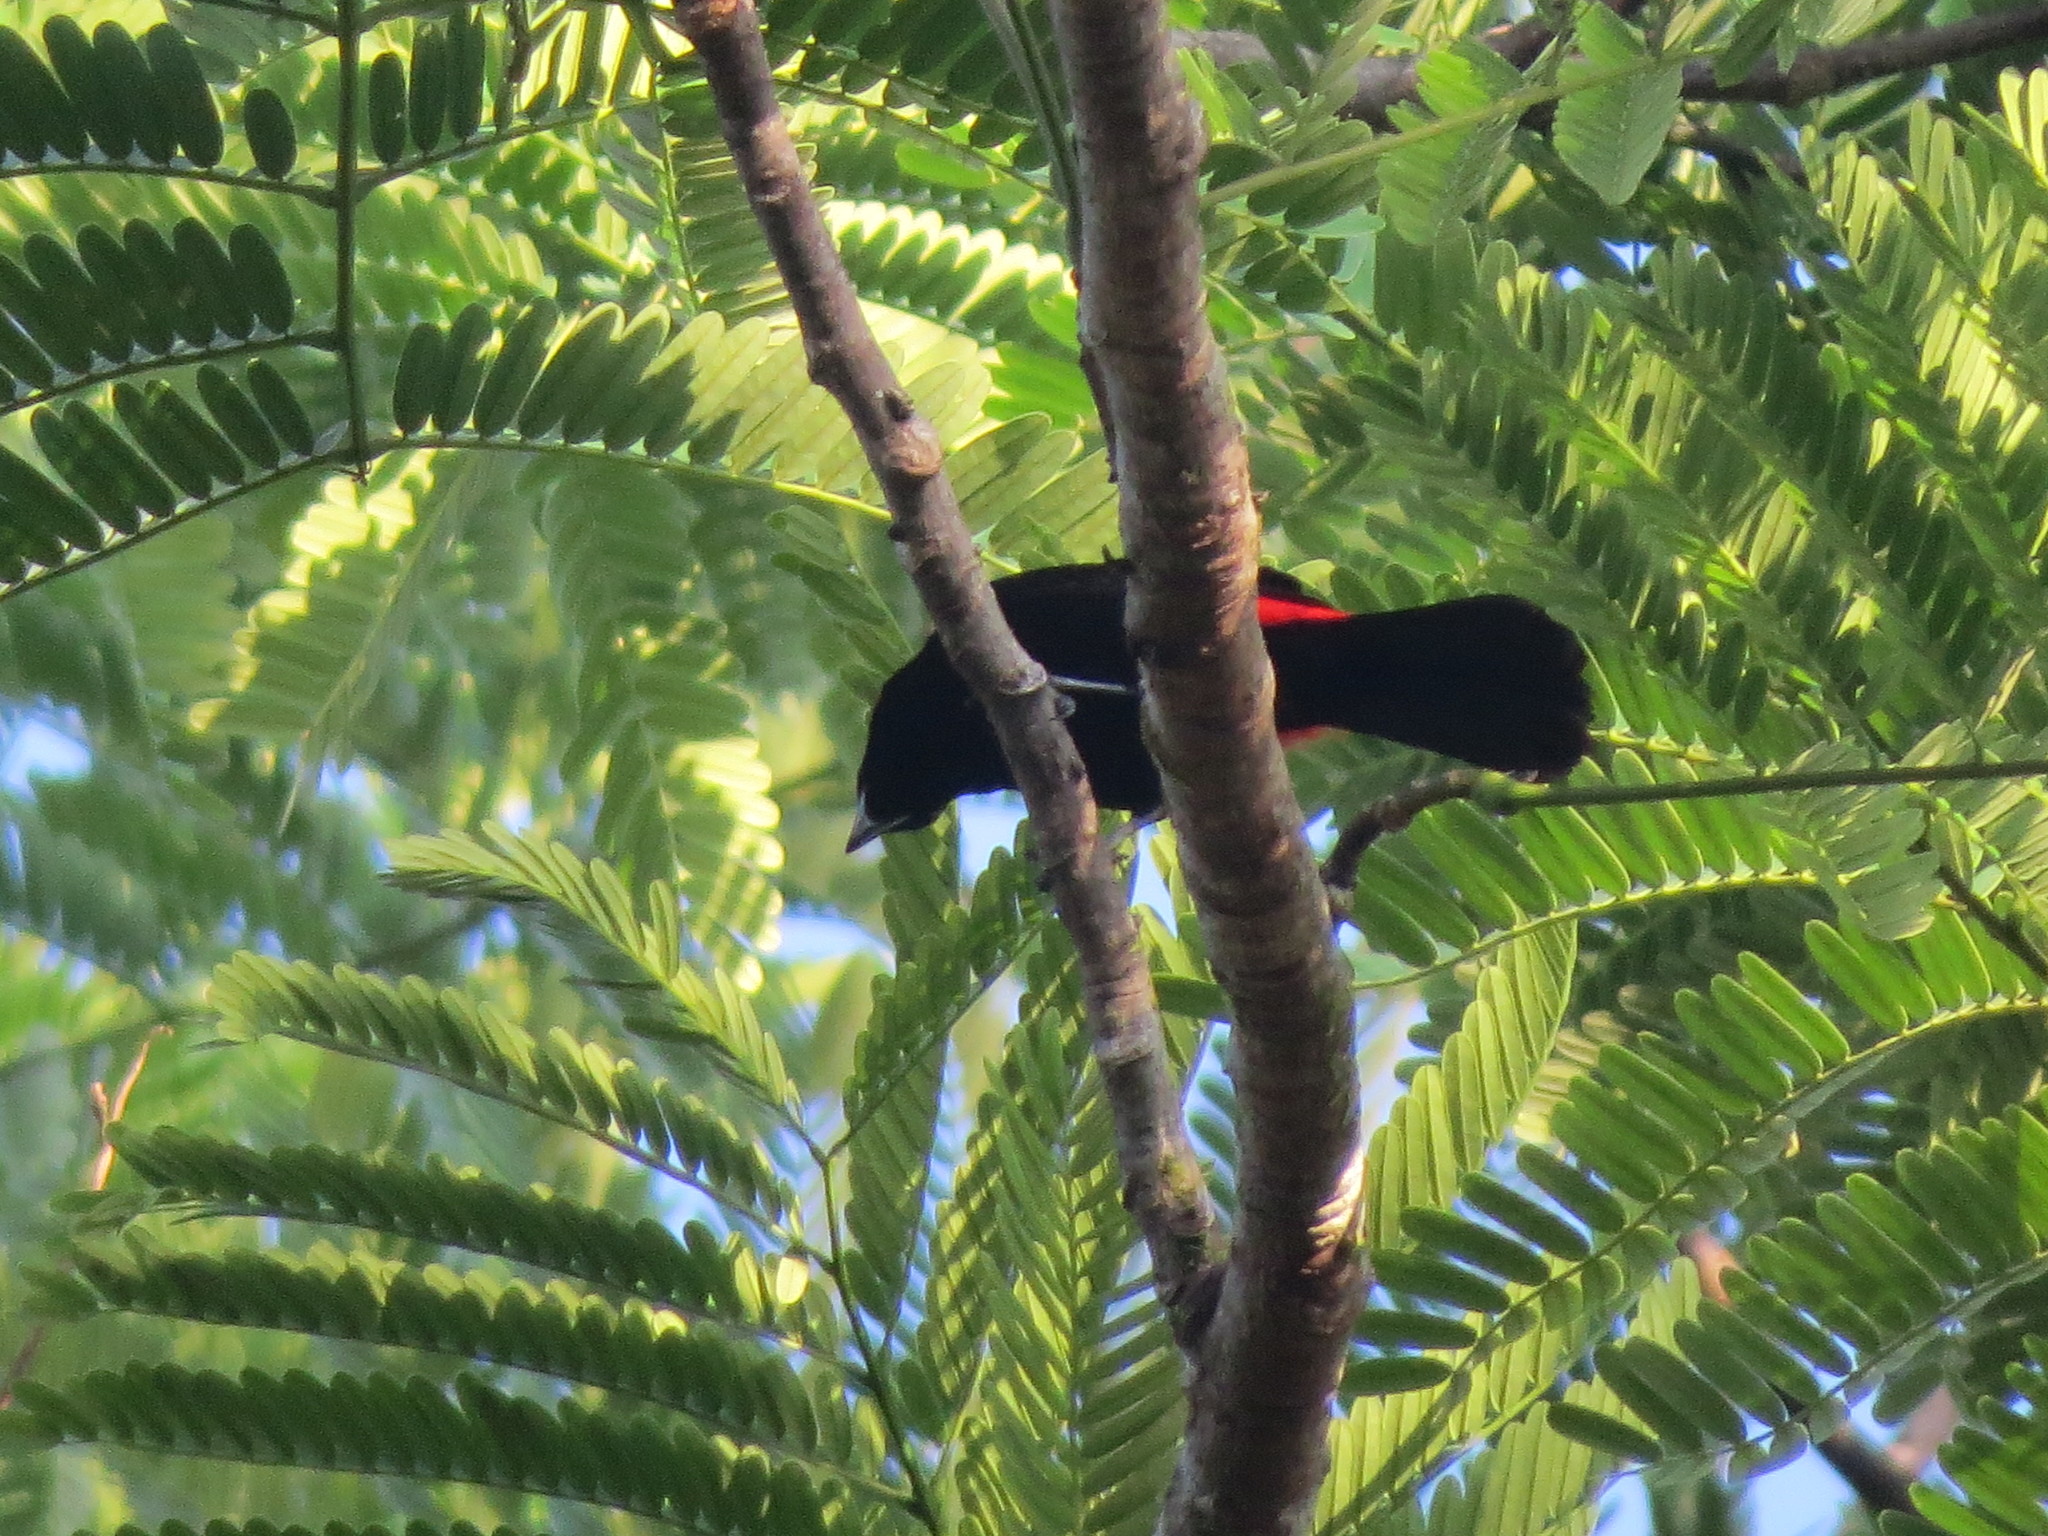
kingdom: Animalia
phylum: Chordata
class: Aves
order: Passeriformes
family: Thraupidae
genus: Ramphocelus
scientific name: Ramphocelus passerinii
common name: Passerini's tanager
